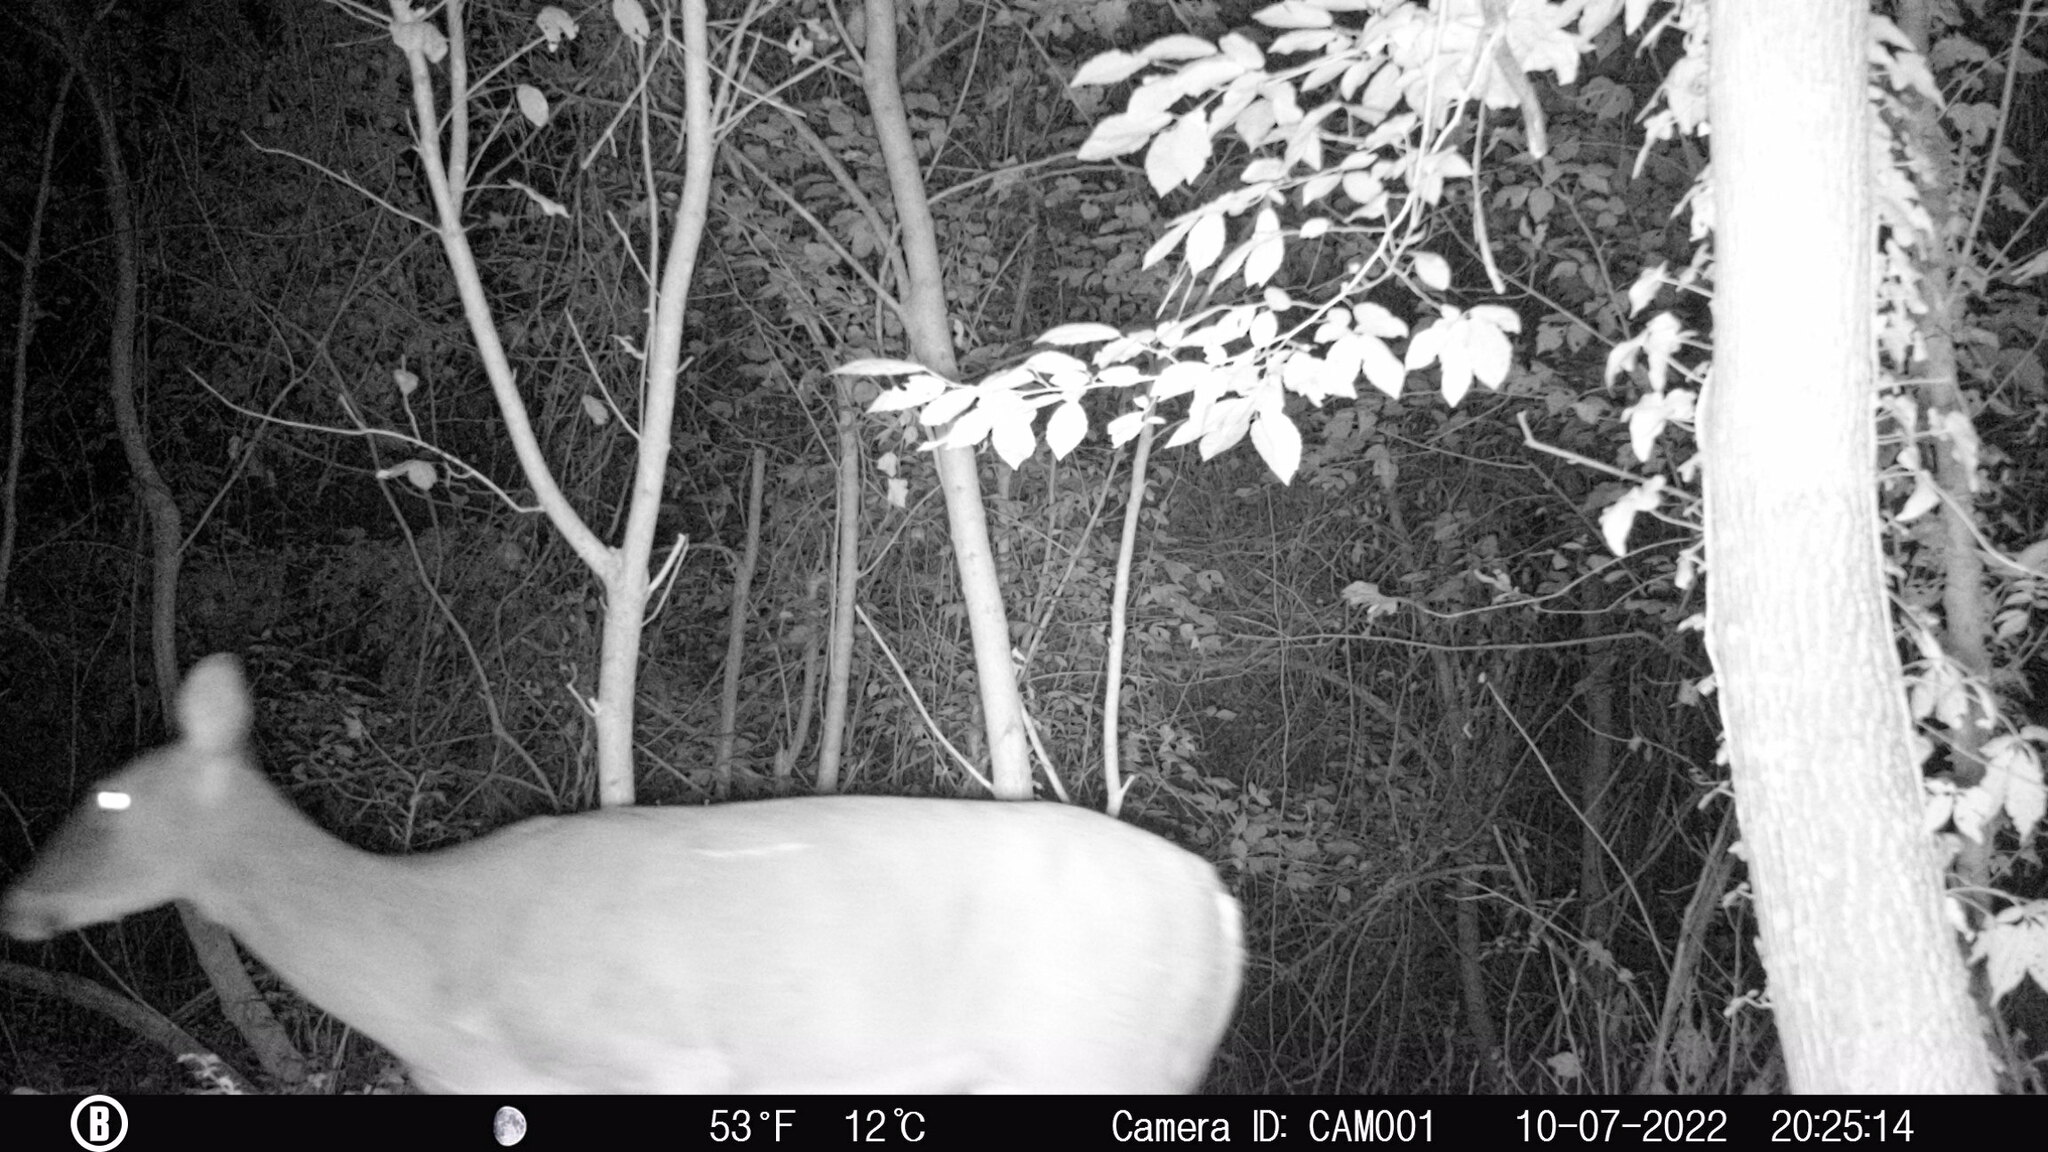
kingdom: Animalia
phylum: Chordata
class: Mammalia
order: Artiodactyla
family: Cervidae
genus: Odocoileus
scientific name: Odocoileus virginianus
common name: White-tailed deer
